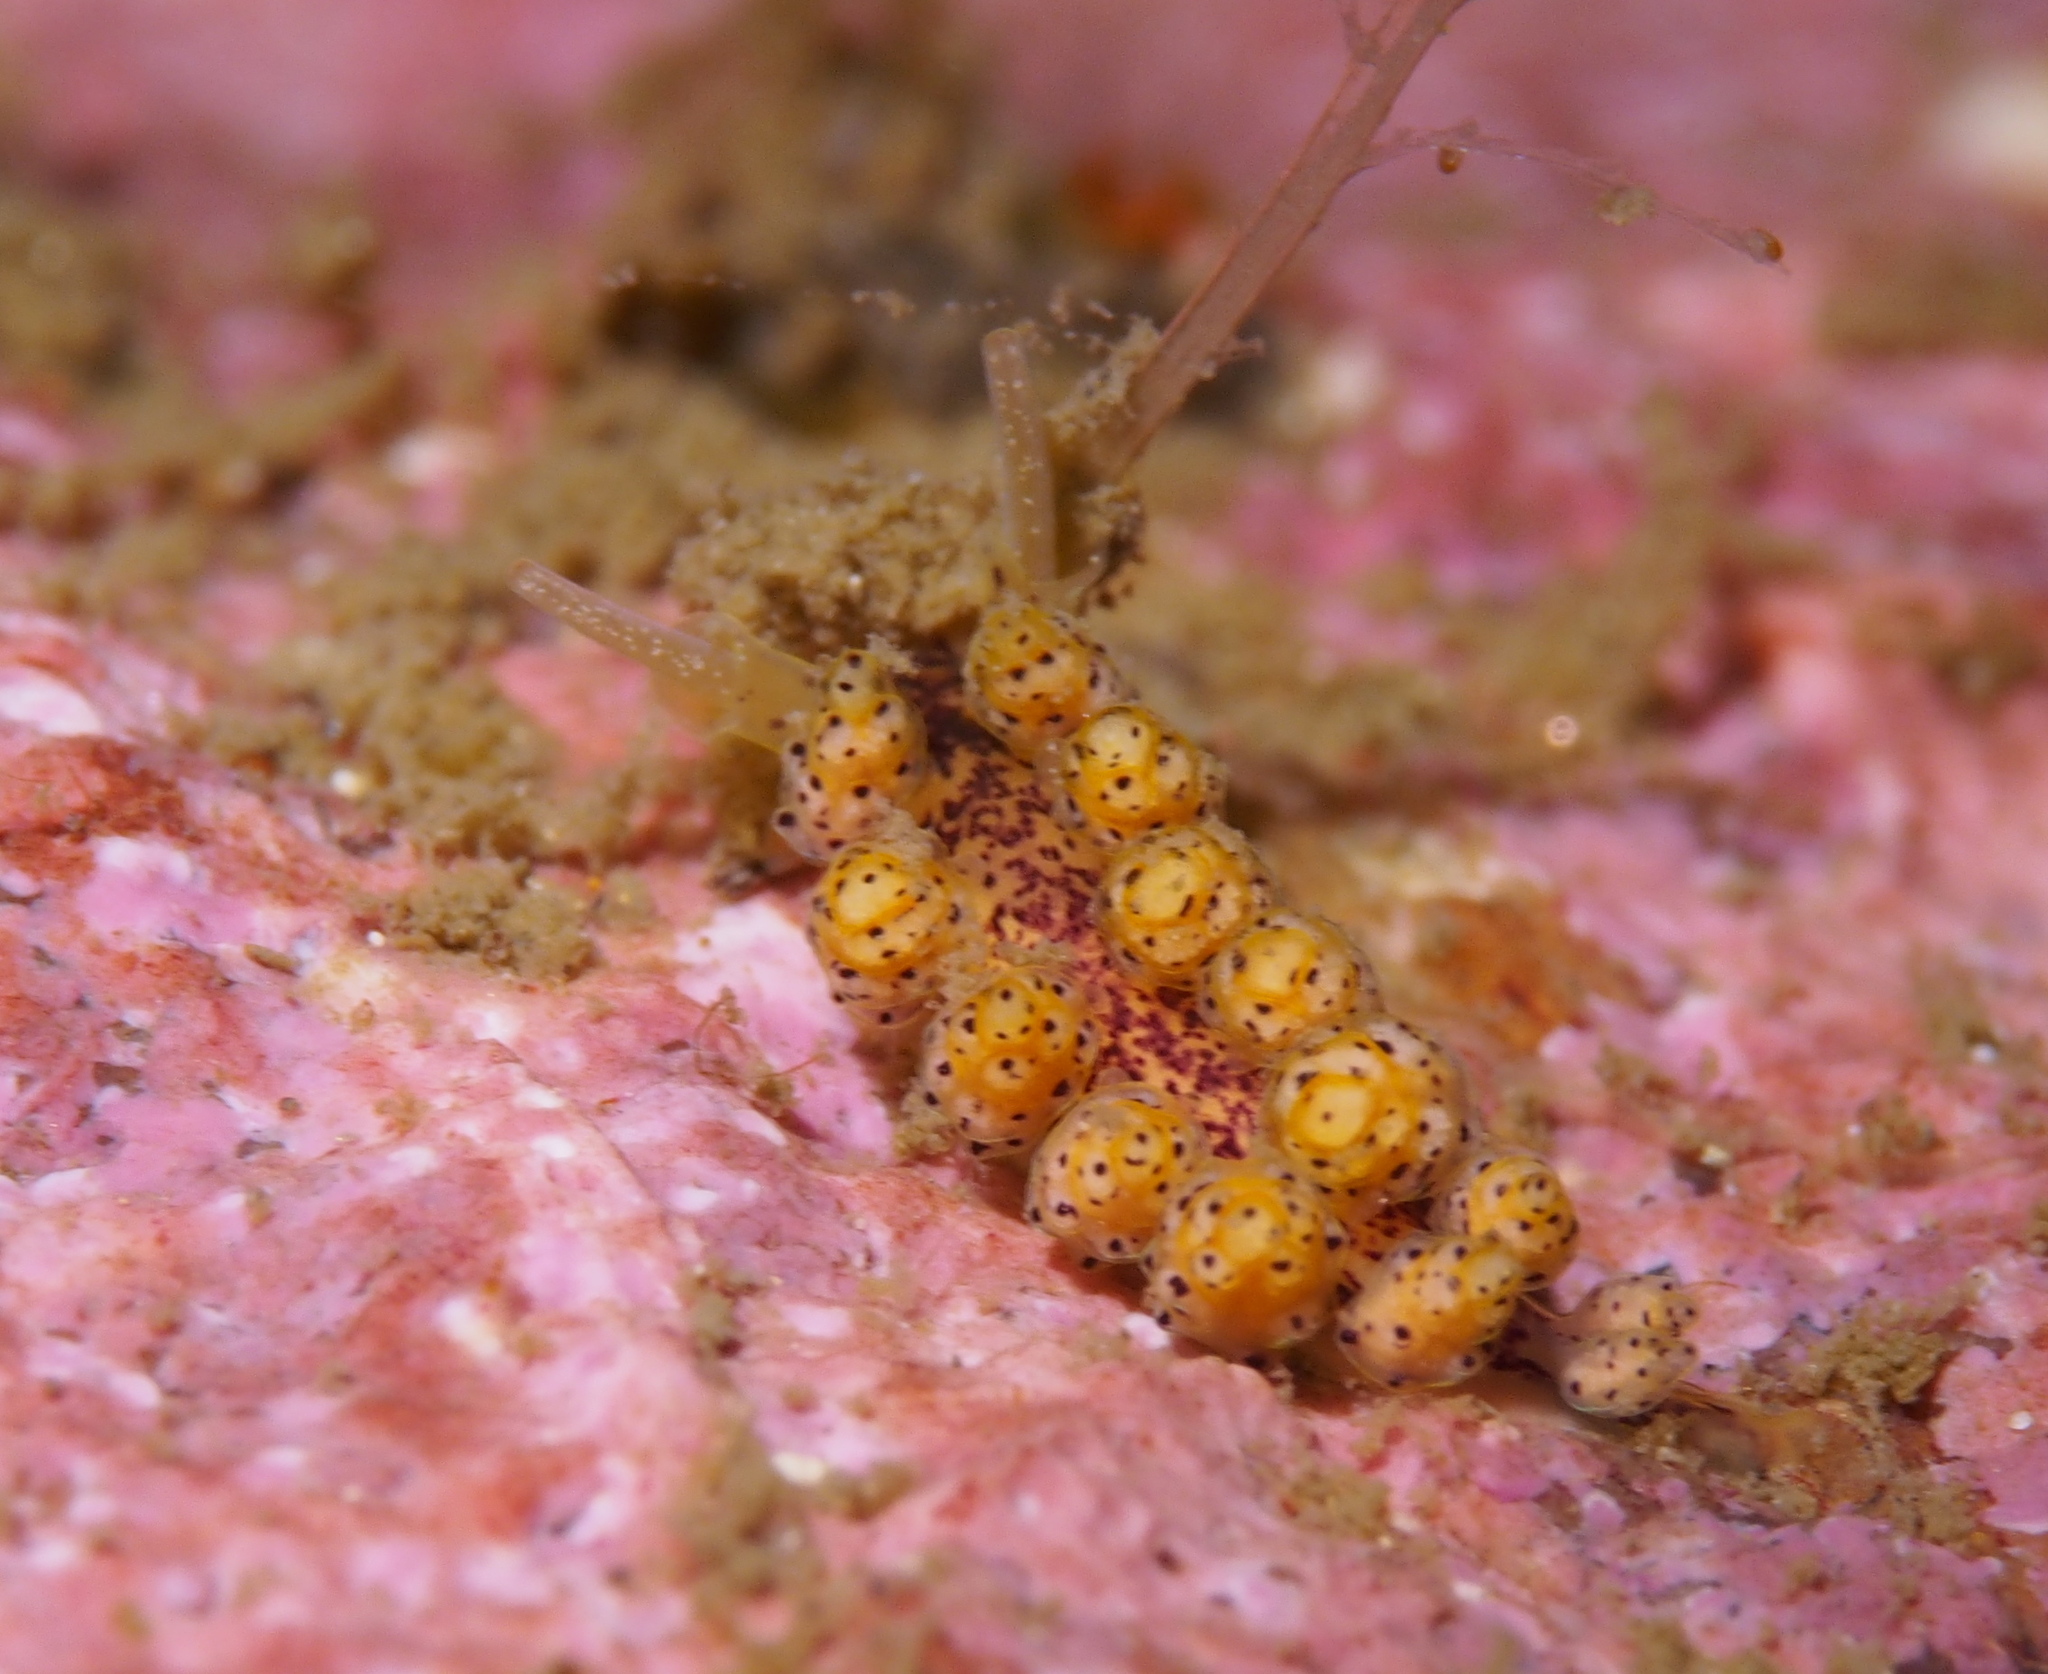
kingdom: Animalia
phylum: Mollusca
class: Gastropoda
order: Nudibranchia
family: Dotidae
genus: Doto
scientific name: Doto dunnei
